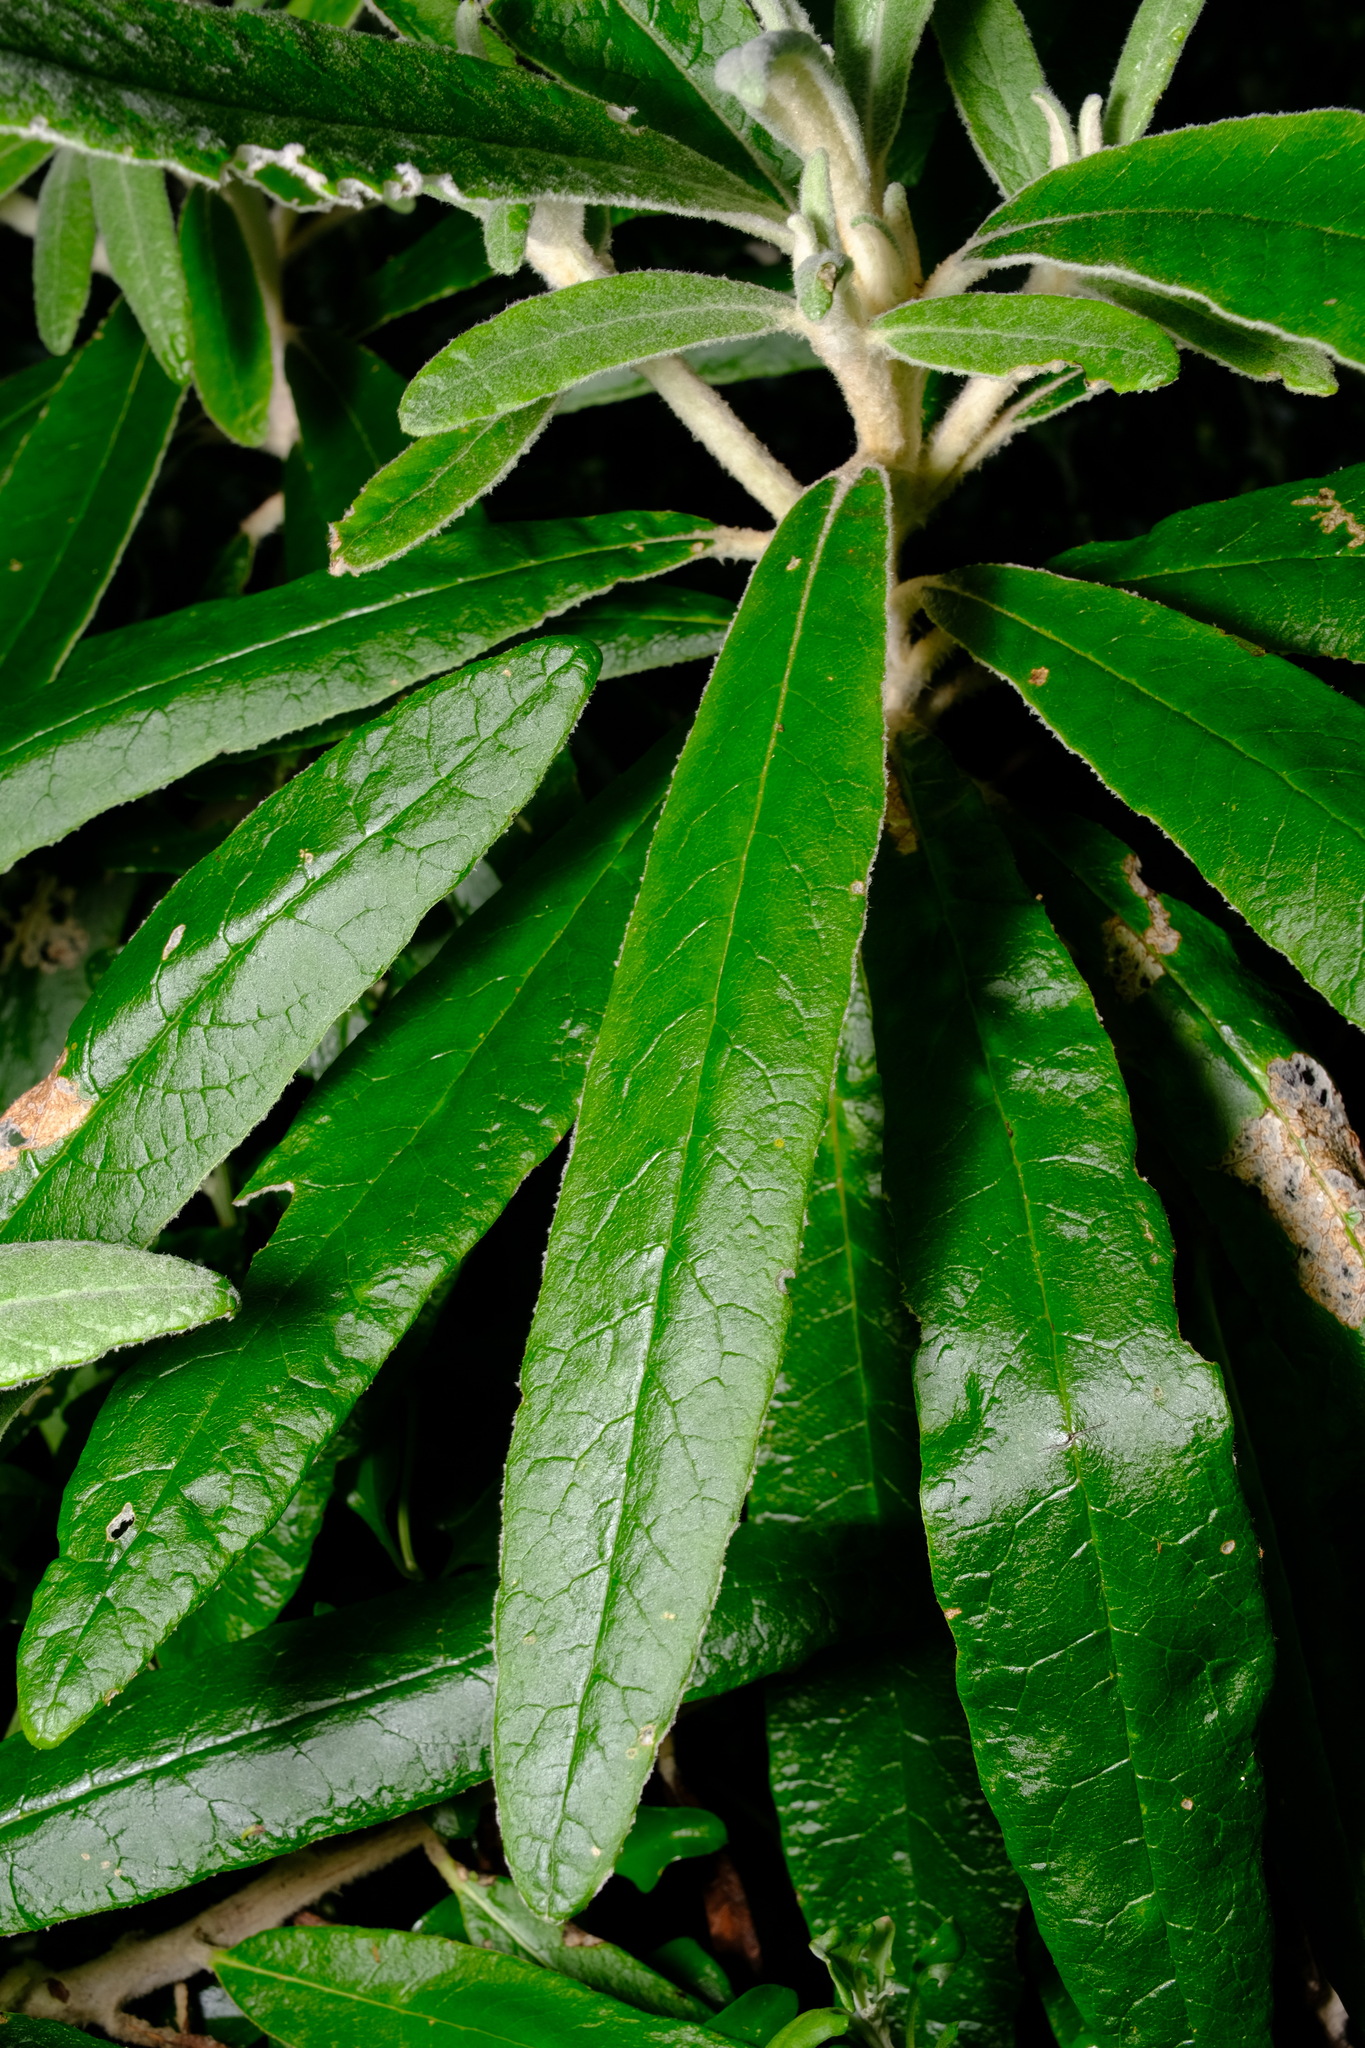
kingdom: Plantae
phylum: Tracheophyta
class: Magnoliopsida
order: Asterales
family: Asteraceae
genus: Bedfordia
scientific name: Bedfordia arborescens
